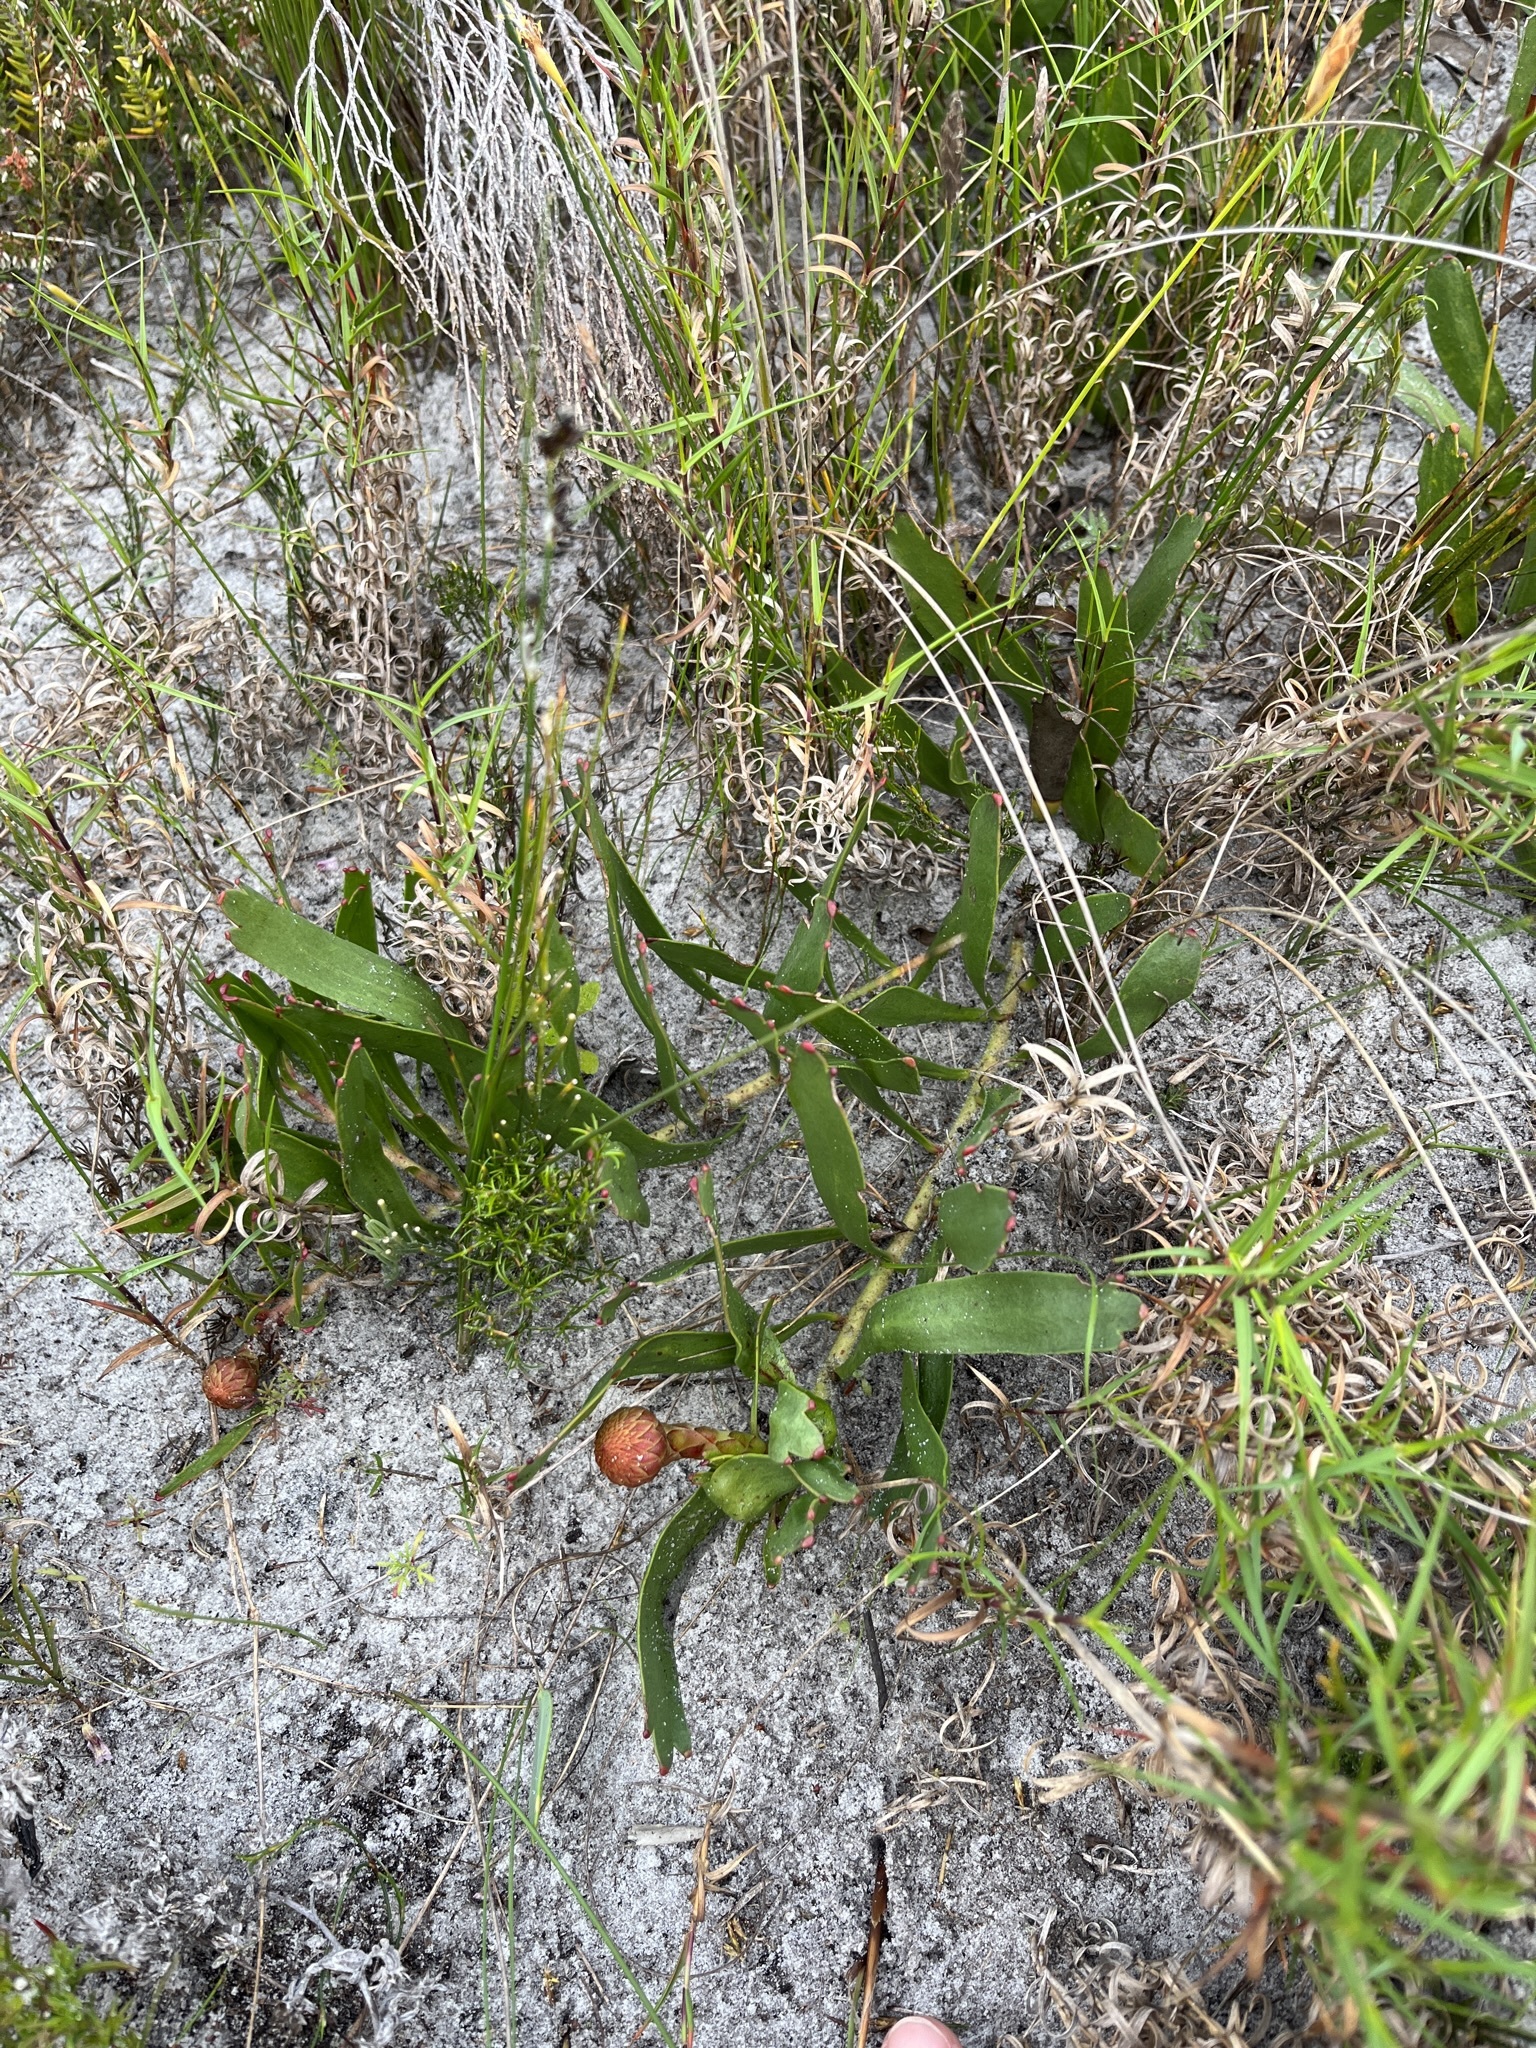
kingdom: Plantae
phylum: Tracheophyta
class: Magnoliopsida
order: Proteales
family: Proteaceae
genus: Leucospermum
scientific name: Leucospermum hypophyllocarpodendron
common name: Snakestem pincushion
